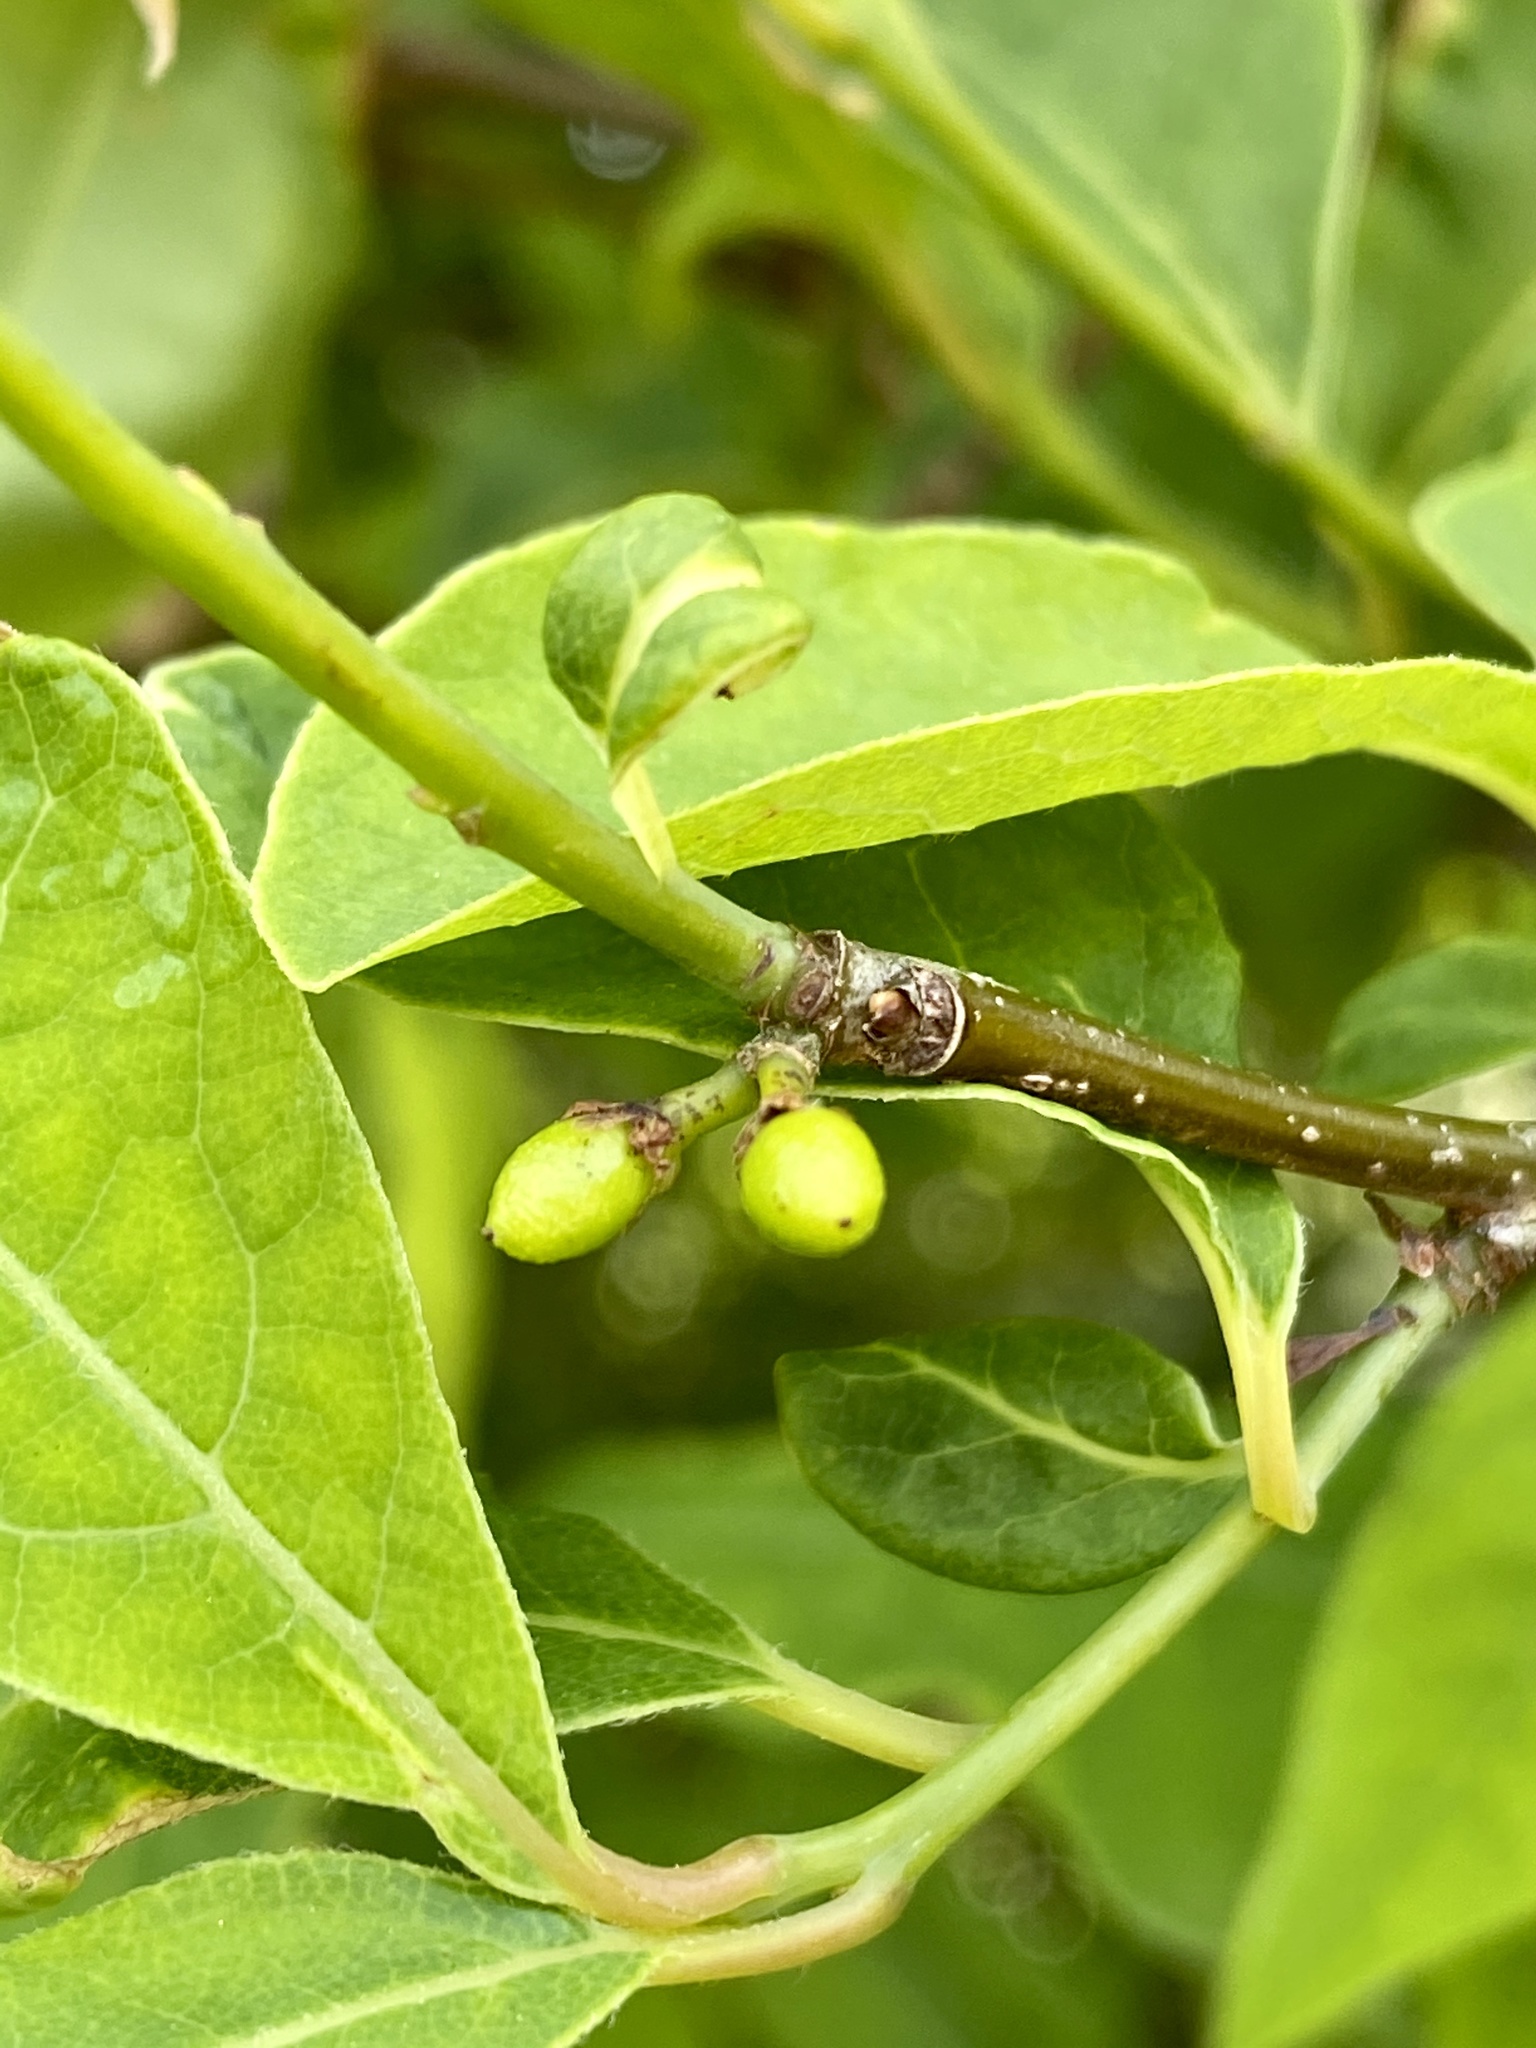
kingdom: Plantae
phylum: Tracheophyta
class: Magnoliopsida
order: Laurales
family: Lauraceae
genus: Lindera
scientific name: Lindera benzoin
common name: Spicebush
